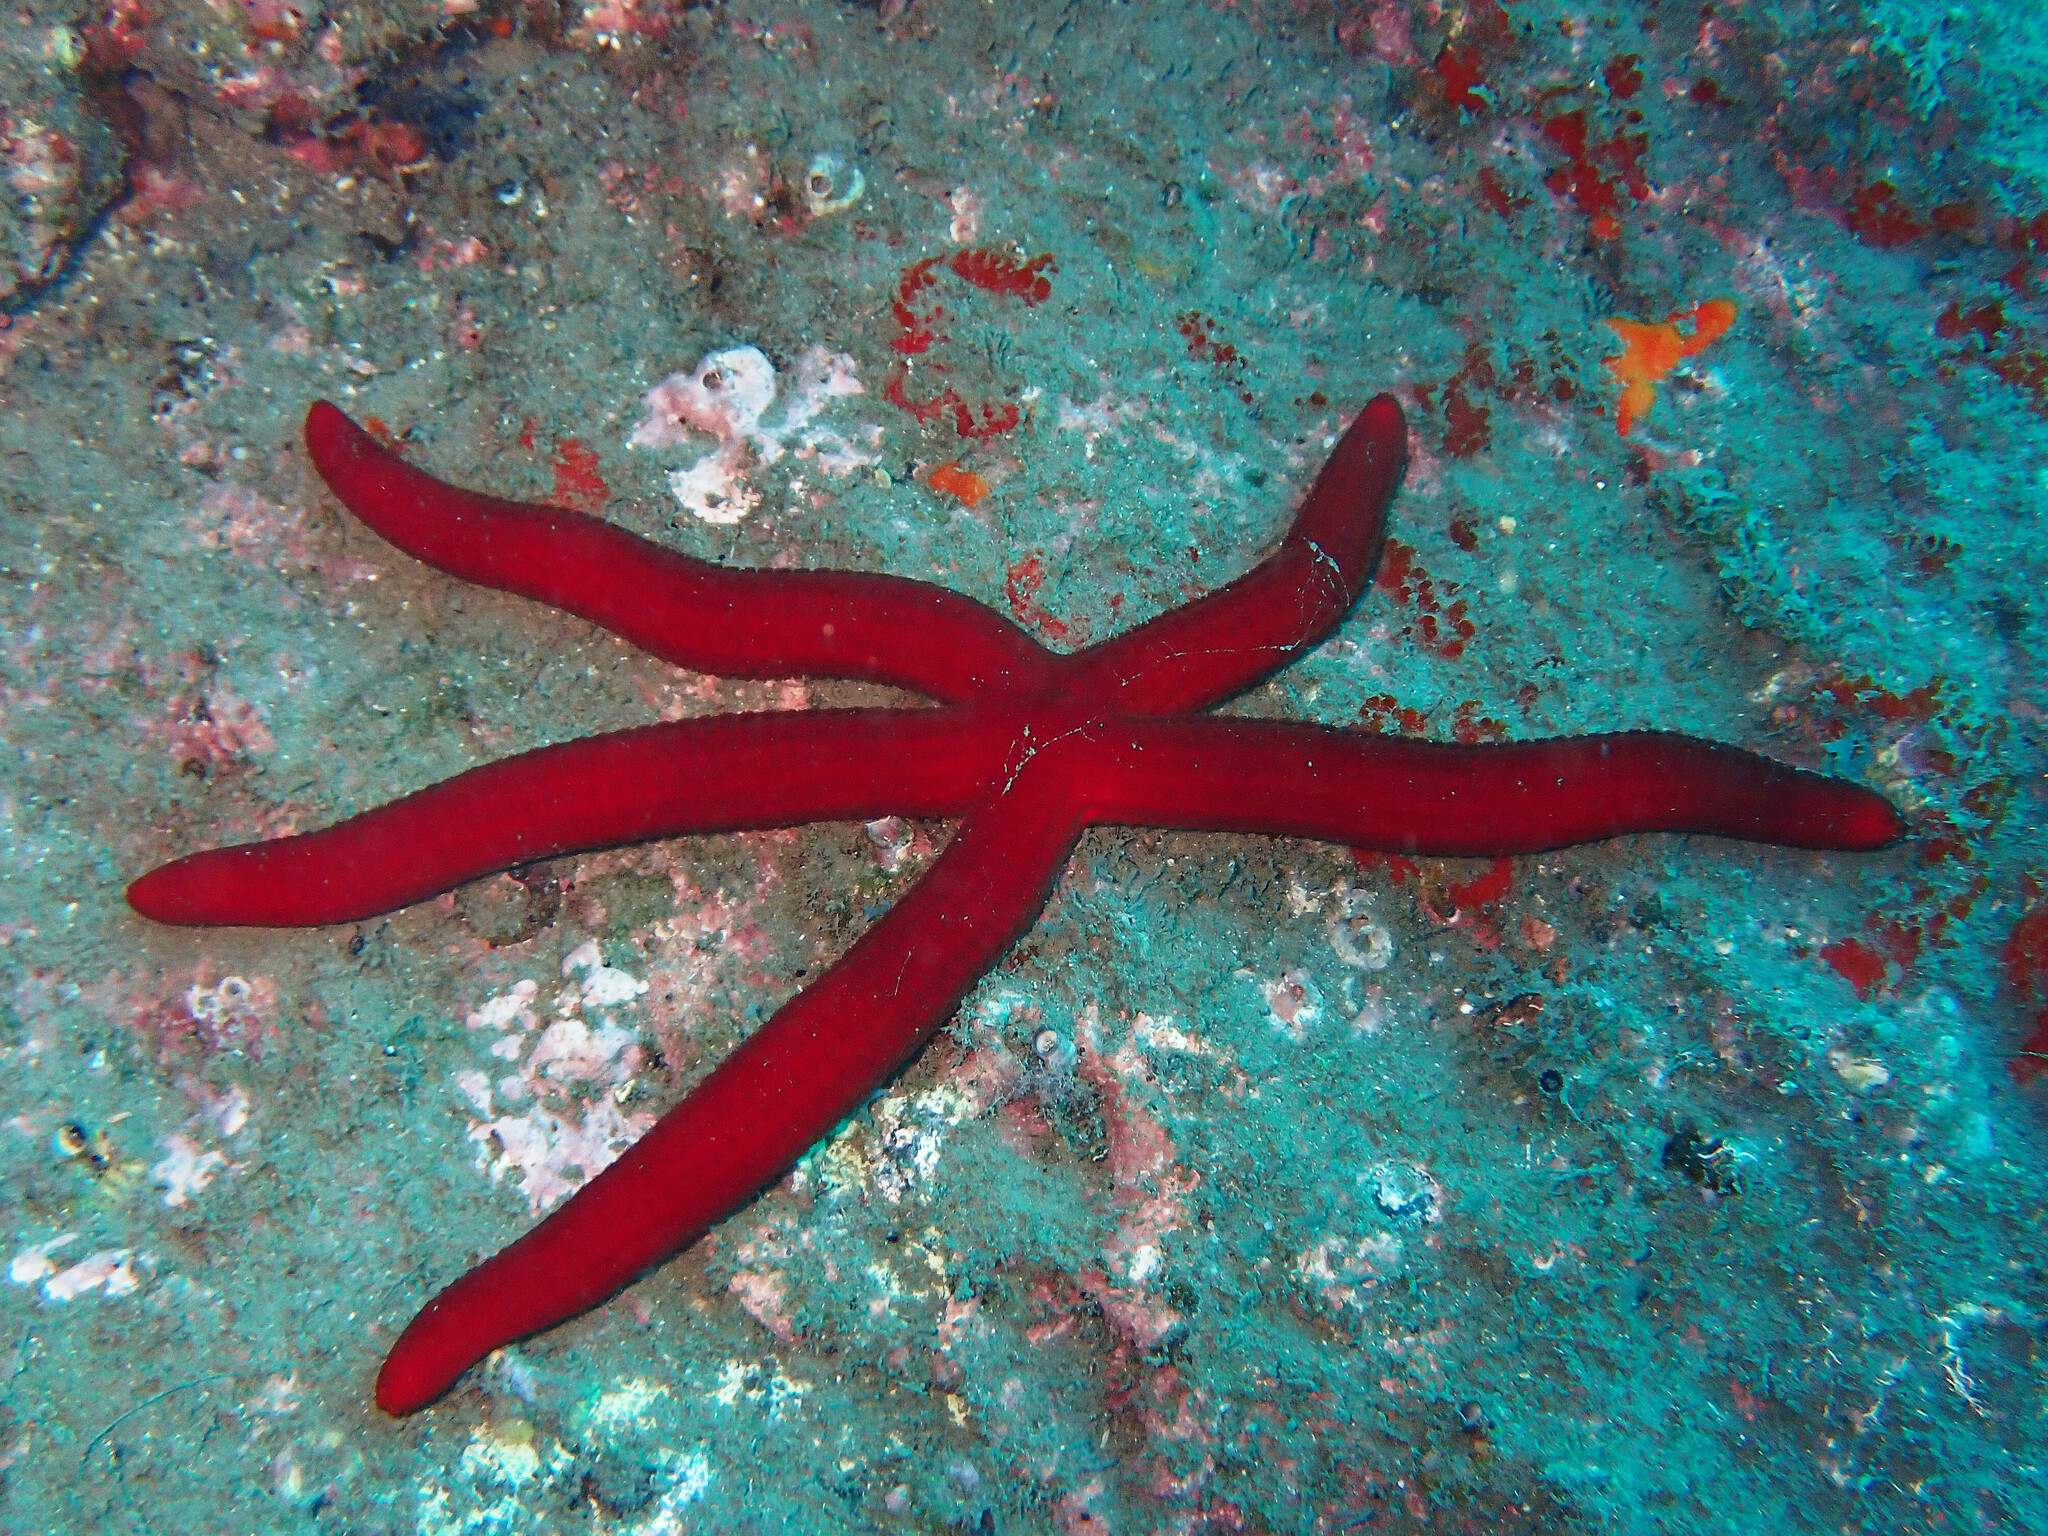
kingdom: Animalia
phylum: Echinodermata
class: Asteroidea
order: Valvatida
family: Ophidiasteridae
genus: Ophidiaster
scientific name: Ophidiaster ophidianus
